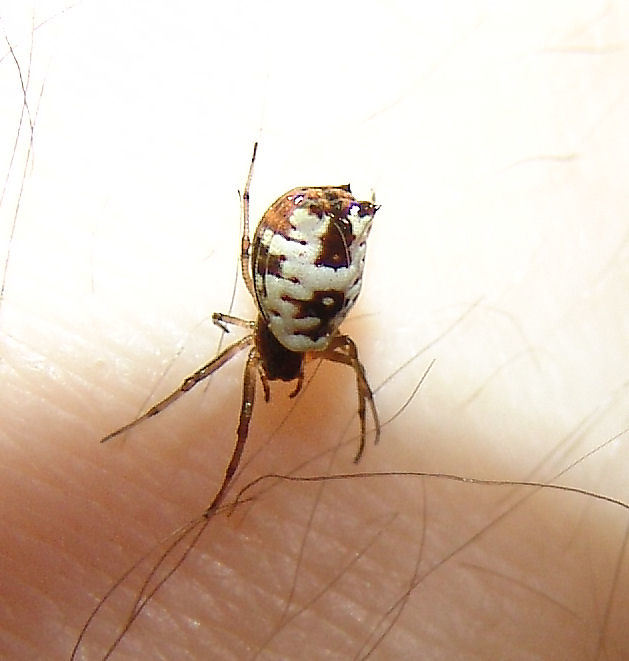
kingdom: Animalia
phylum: Arthropoda
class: Arachnida
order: Araneae
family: Araneidae
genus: Micrathena
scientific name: Micrathena mitrata
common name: Orb weavers
